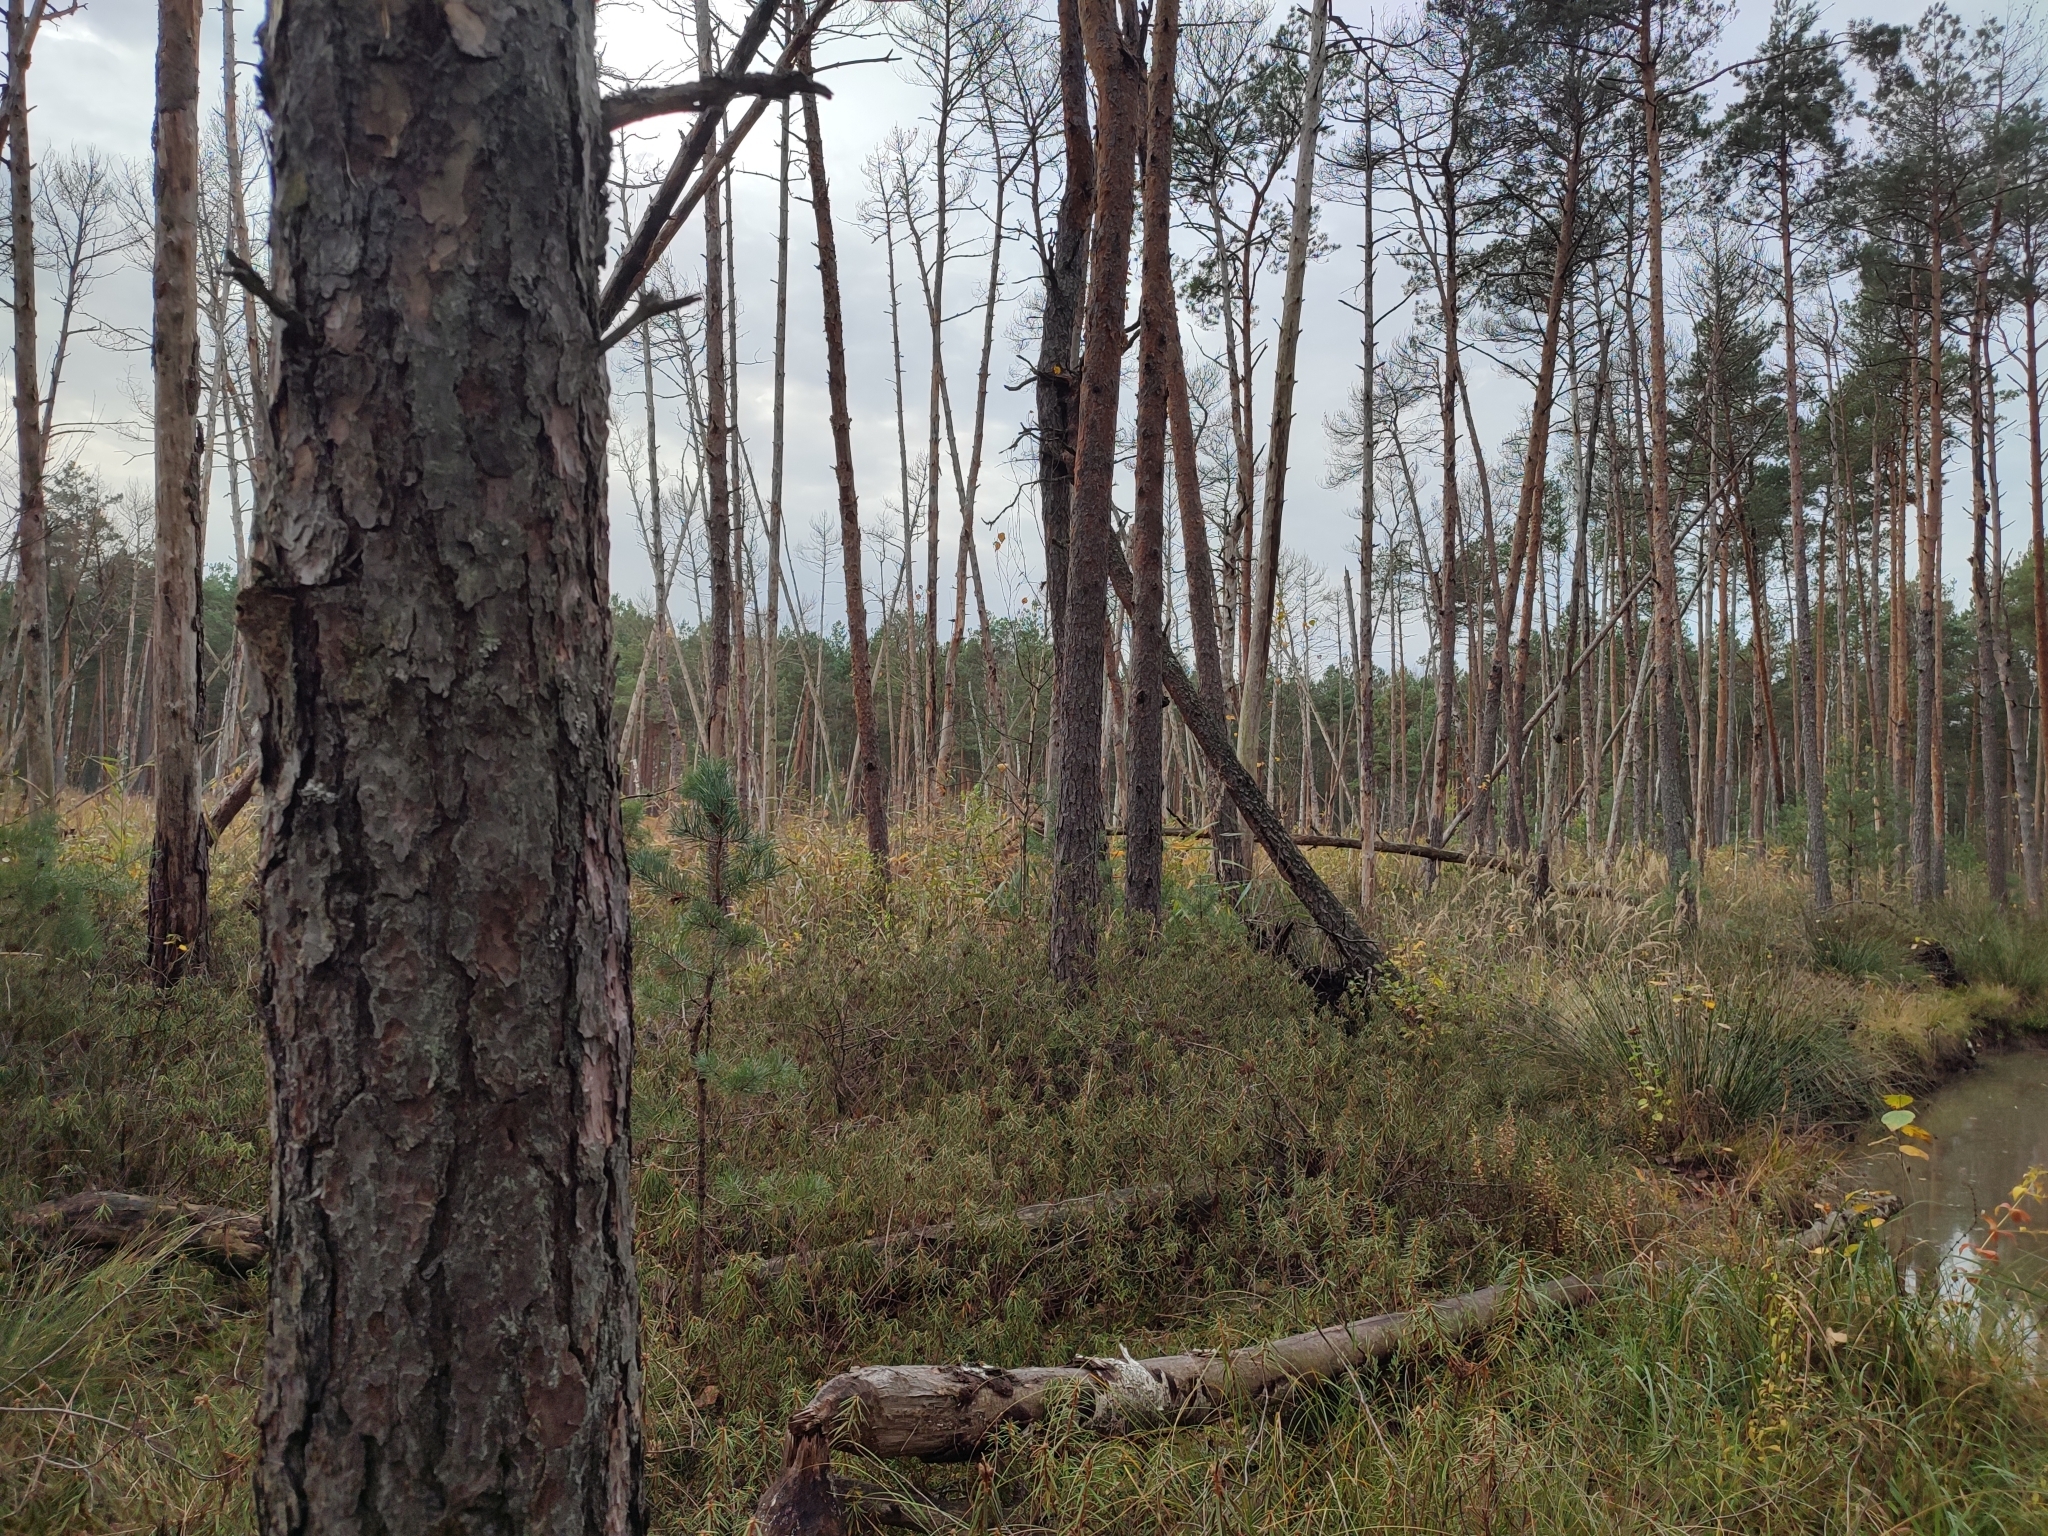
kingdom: Plantae
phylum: Tracheophyta
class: Pinopsida
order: Pinales
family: Pinaceae
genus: Pinus
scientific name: Pinus sylvestris
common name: Scots pine
